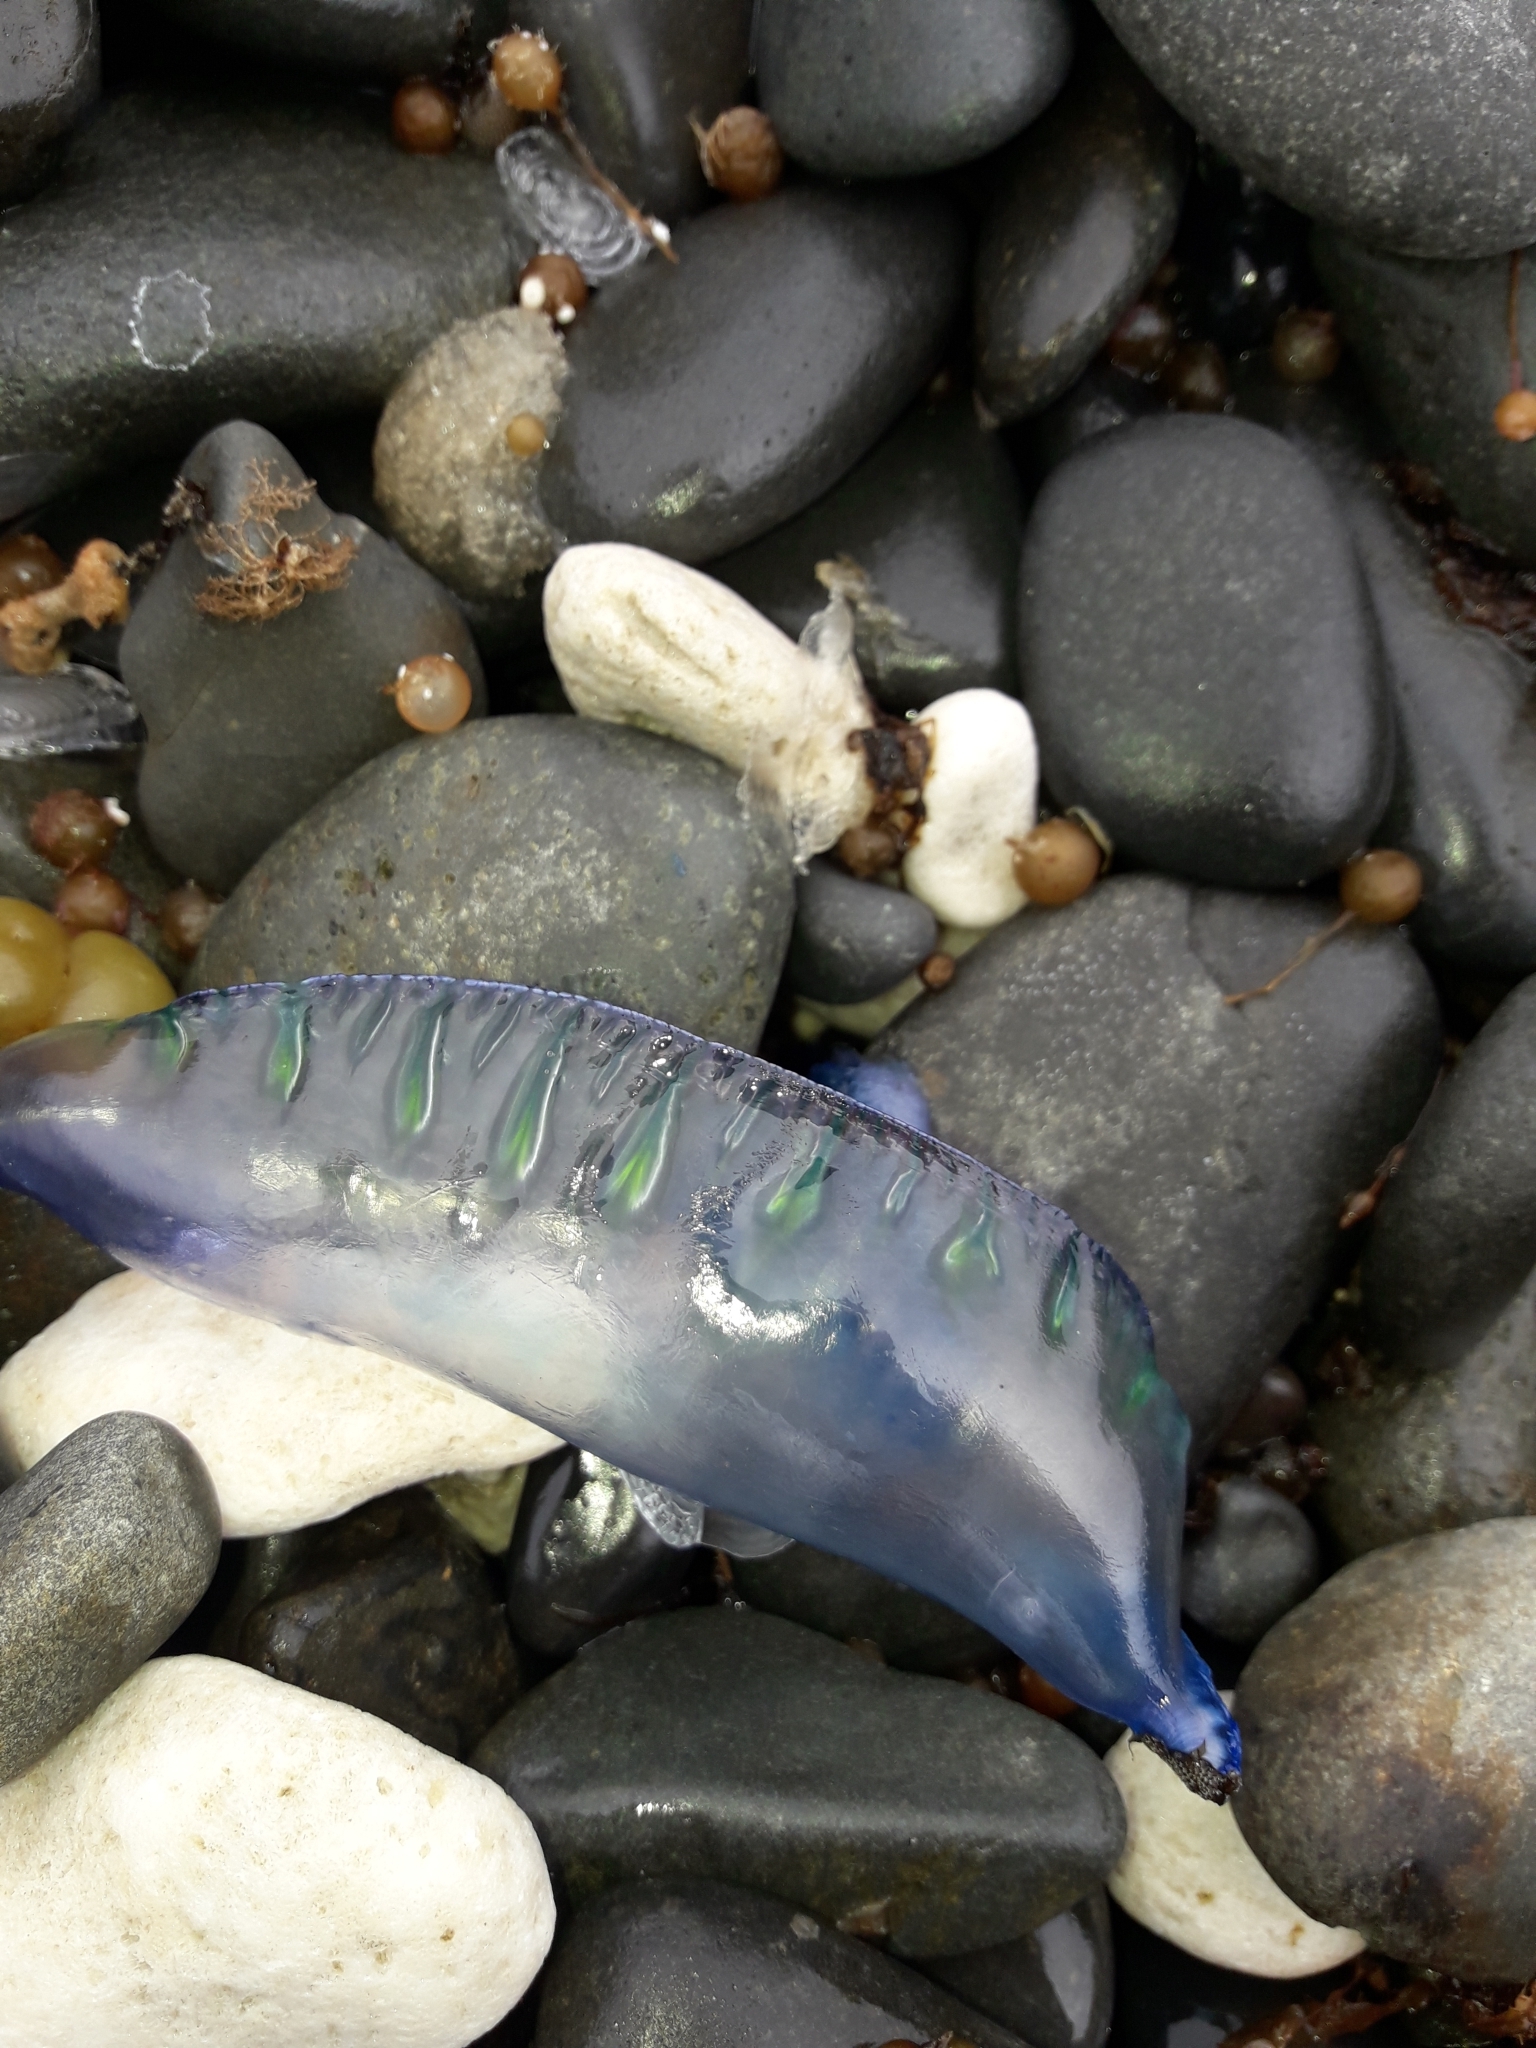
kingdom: Animalia
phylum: Cnidaria
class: Hydrozoa
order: Siphonophorae
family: Physaliidae
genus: Physalia
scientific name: Physalia physalis
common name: Portuguese man-of-war
